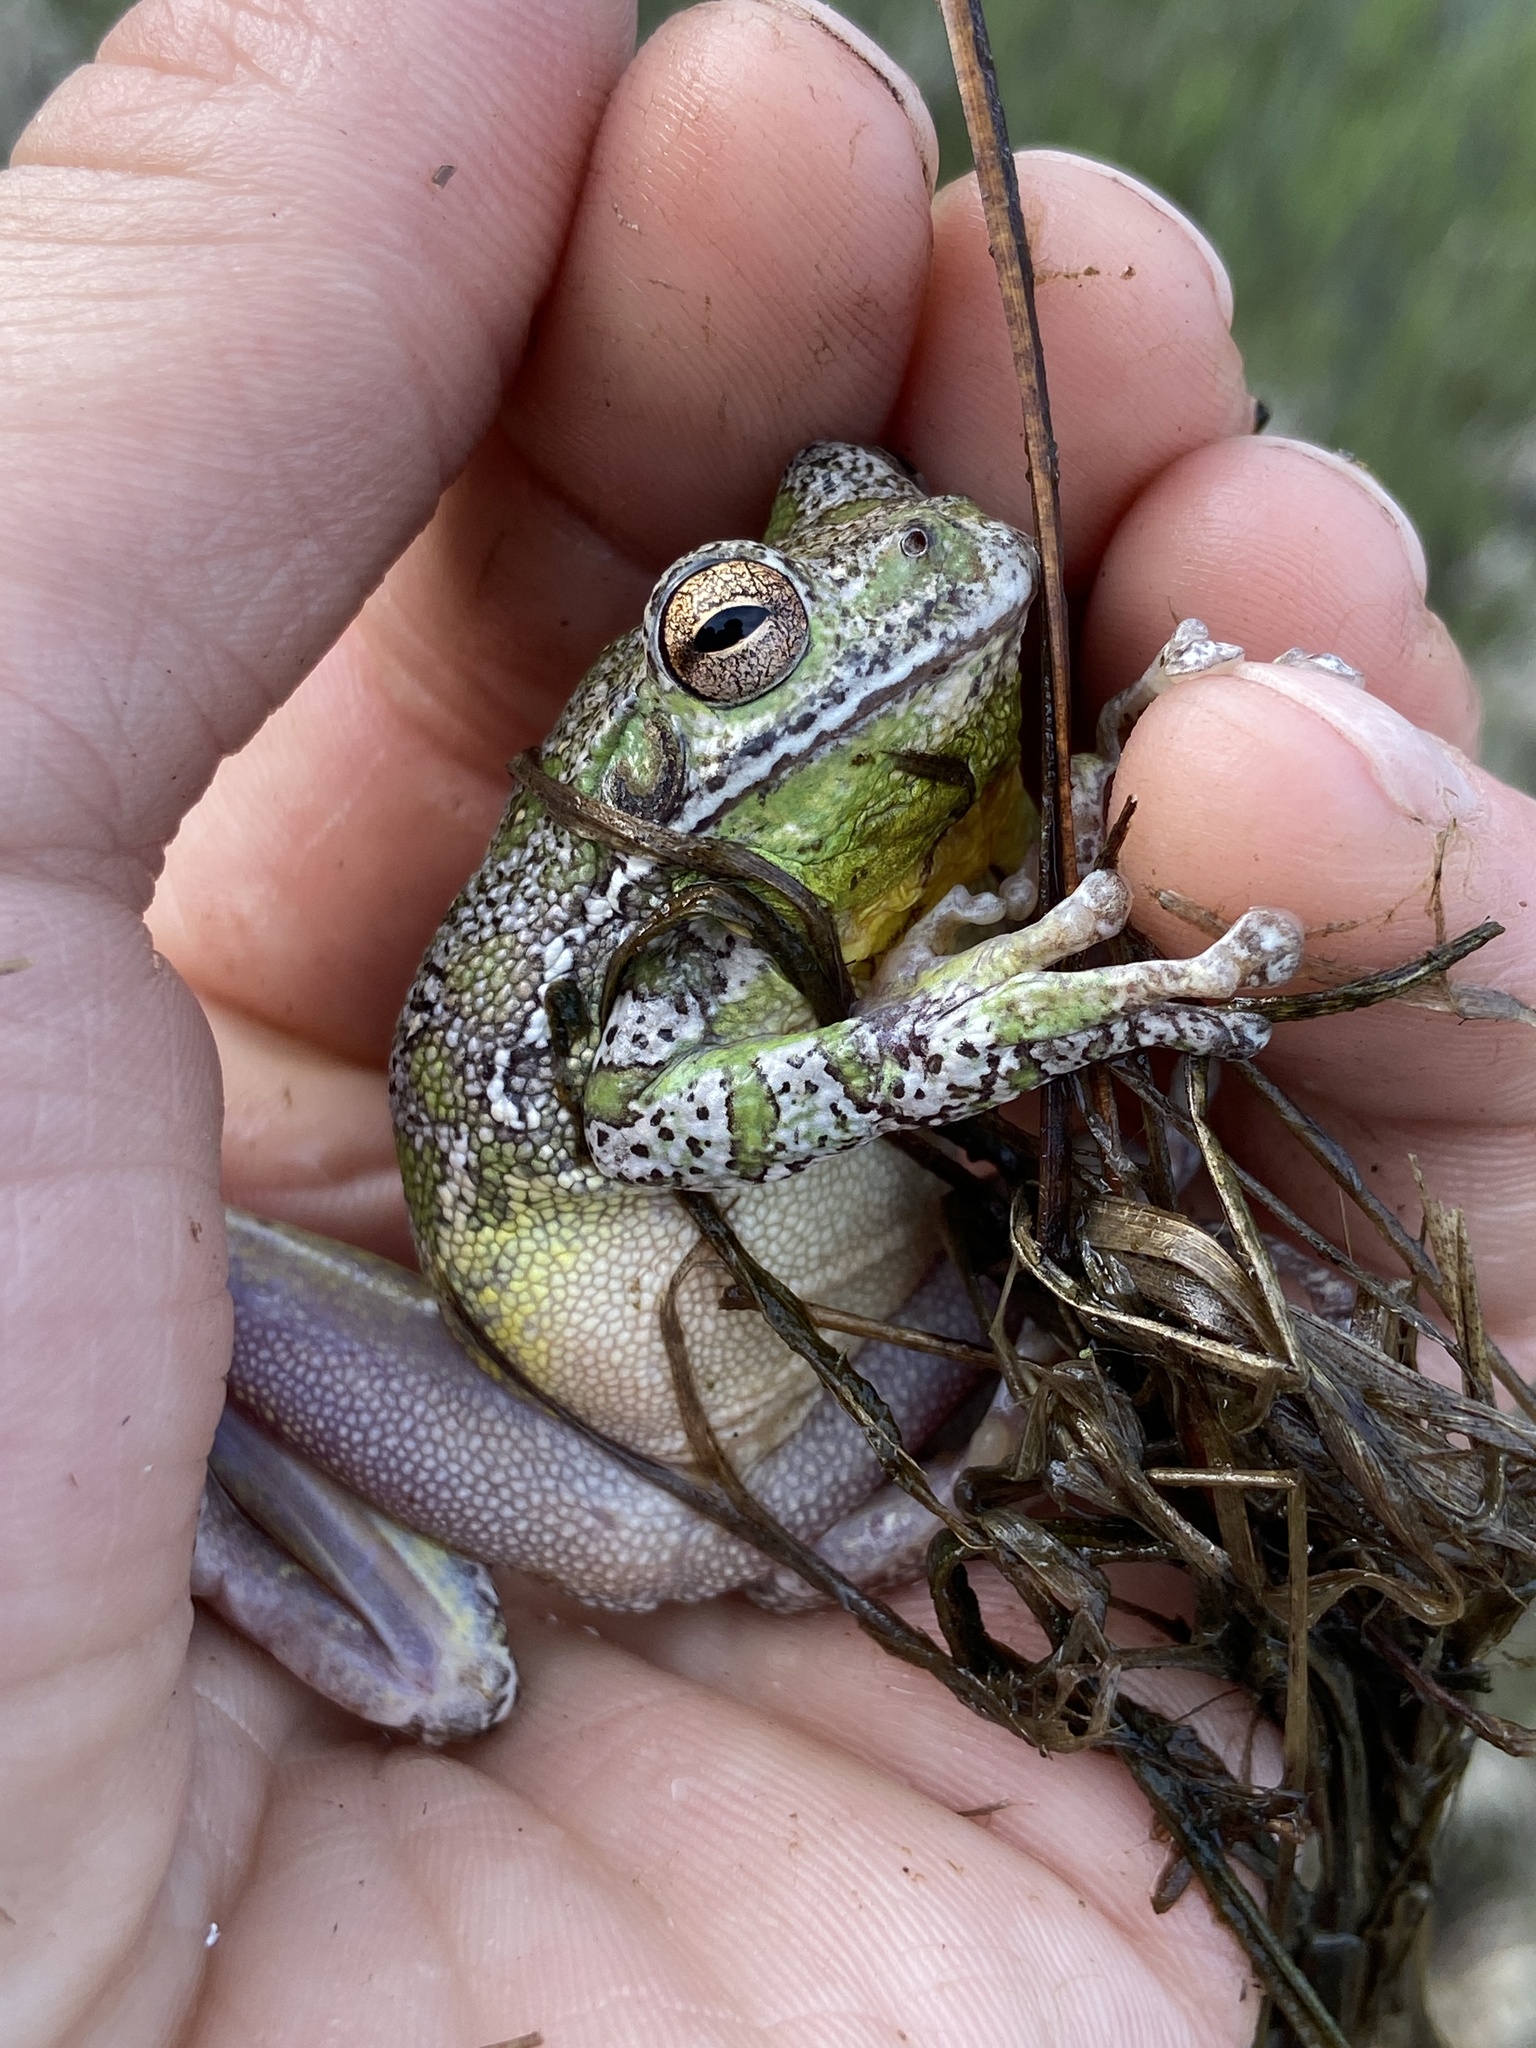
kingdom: Animalia
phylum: Chordata
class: Amphibia
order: Anura
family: Hylidae
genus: Dryophytes
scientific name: Dryophytes gratiosus
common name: Barking treefrog
